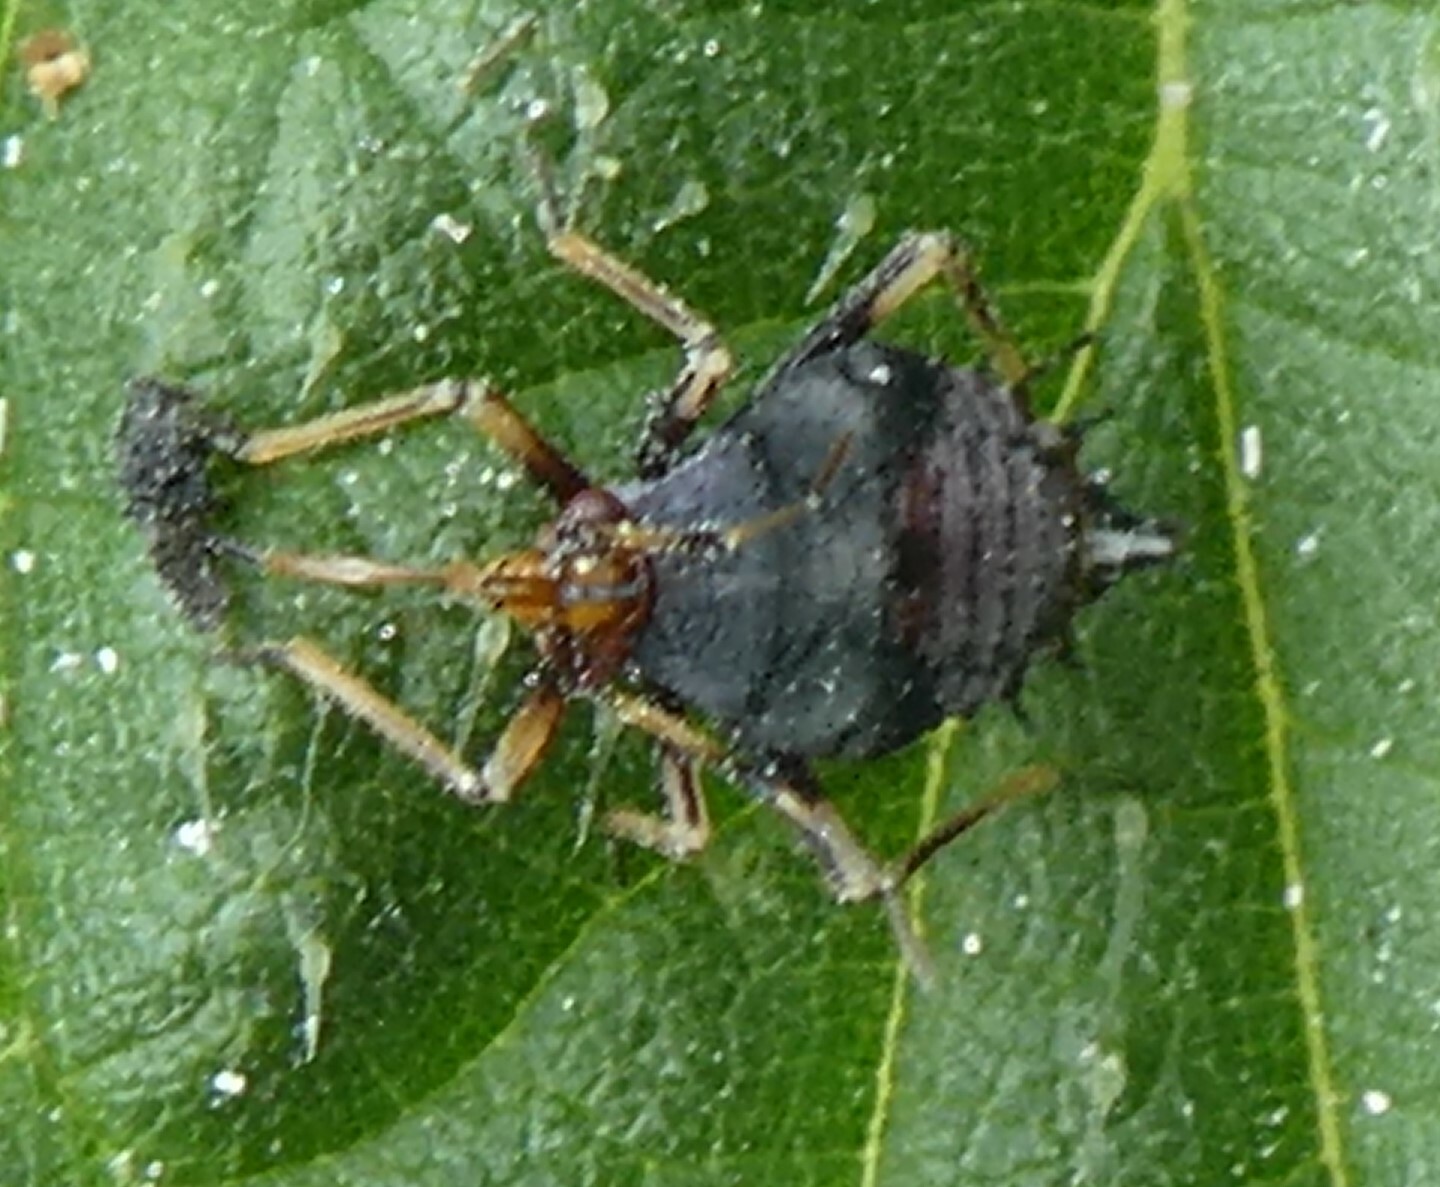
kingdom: Animalia
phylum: Arthropoda
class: Insecta
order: Hemiptera
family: Miridae
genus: Deraeocoris
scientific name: Deraeocoris ruber
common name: Plant bug
